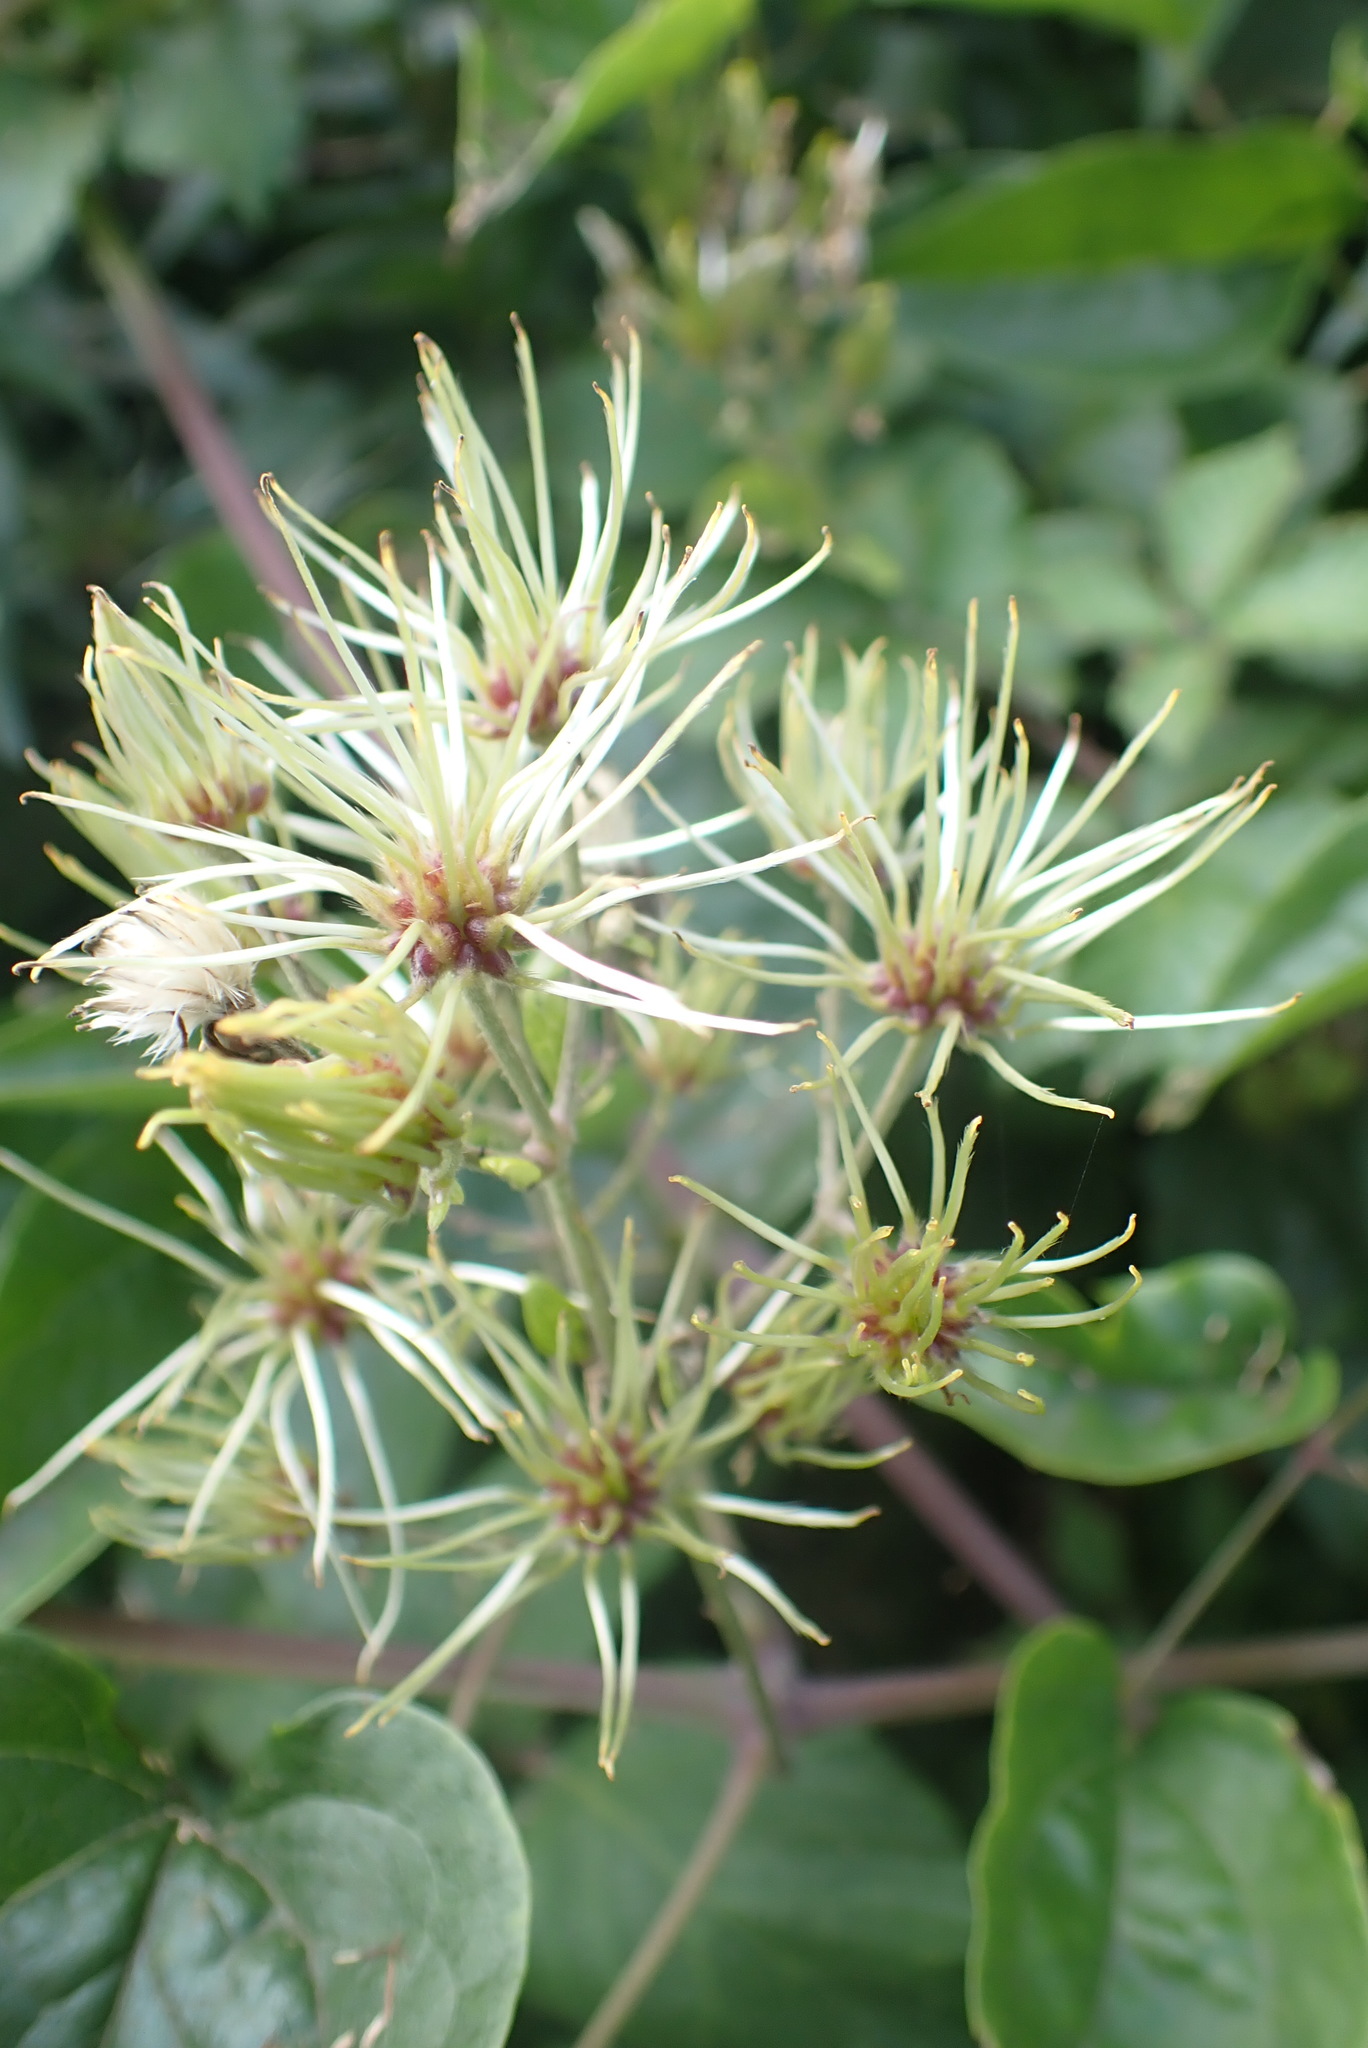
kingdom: Plantae
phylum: Tracheophyta
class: Magnoliopsida
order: Ranunculales
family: Ranunculaceae
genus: Clematis
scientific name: Clematis vitalba
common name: Evergreen clematis
